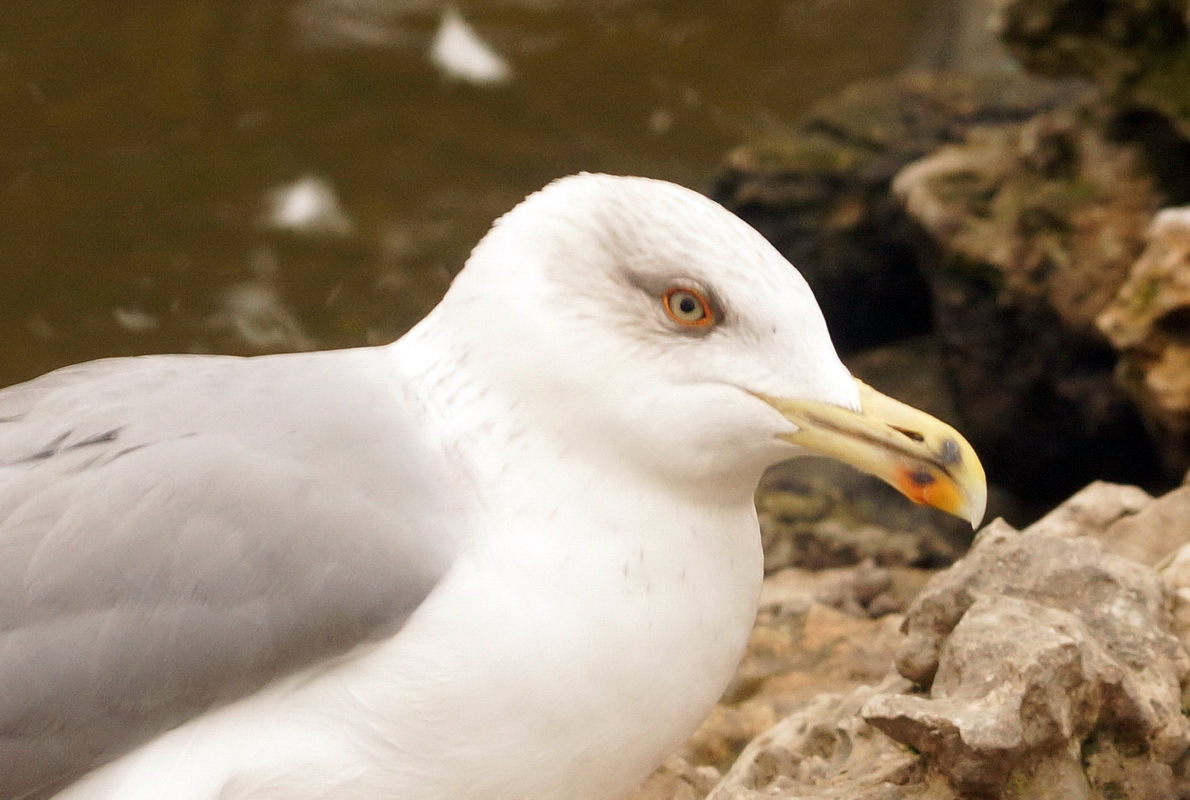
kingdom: Animalia
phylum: Chordata
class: Aves
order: Charadriiformes
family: Laridae
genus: Larus
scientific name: Larus michahellis
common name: Yellow-legged gull
